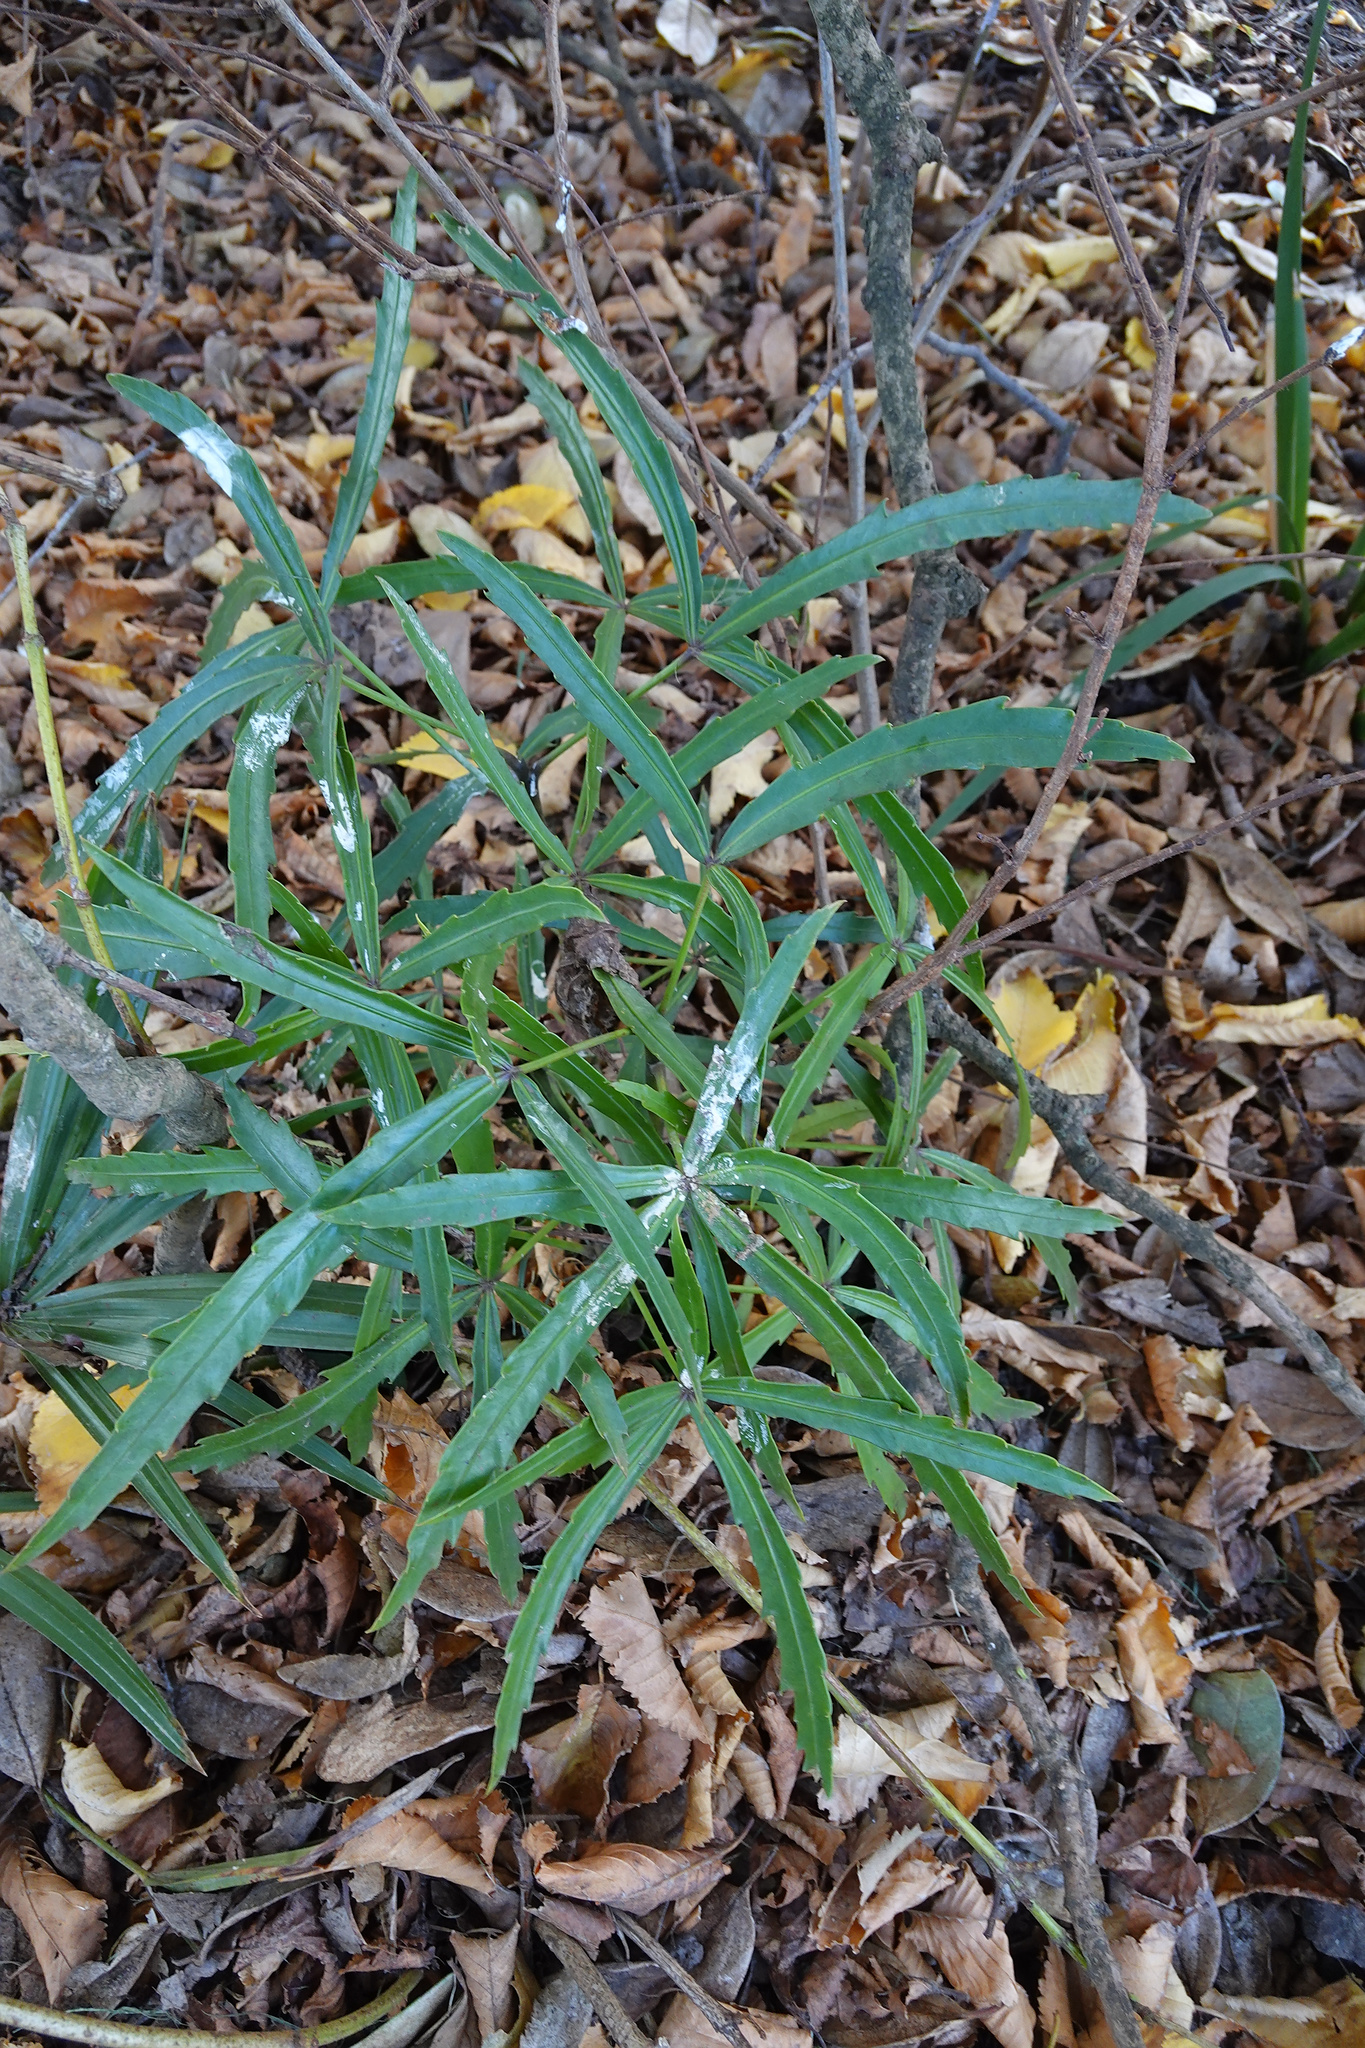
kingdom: Plantae
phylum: Tracheophyta
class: Magnoliopsida
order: Apiales
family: Araliaceae
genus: Pseudopanax
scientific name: Pseudopanax
